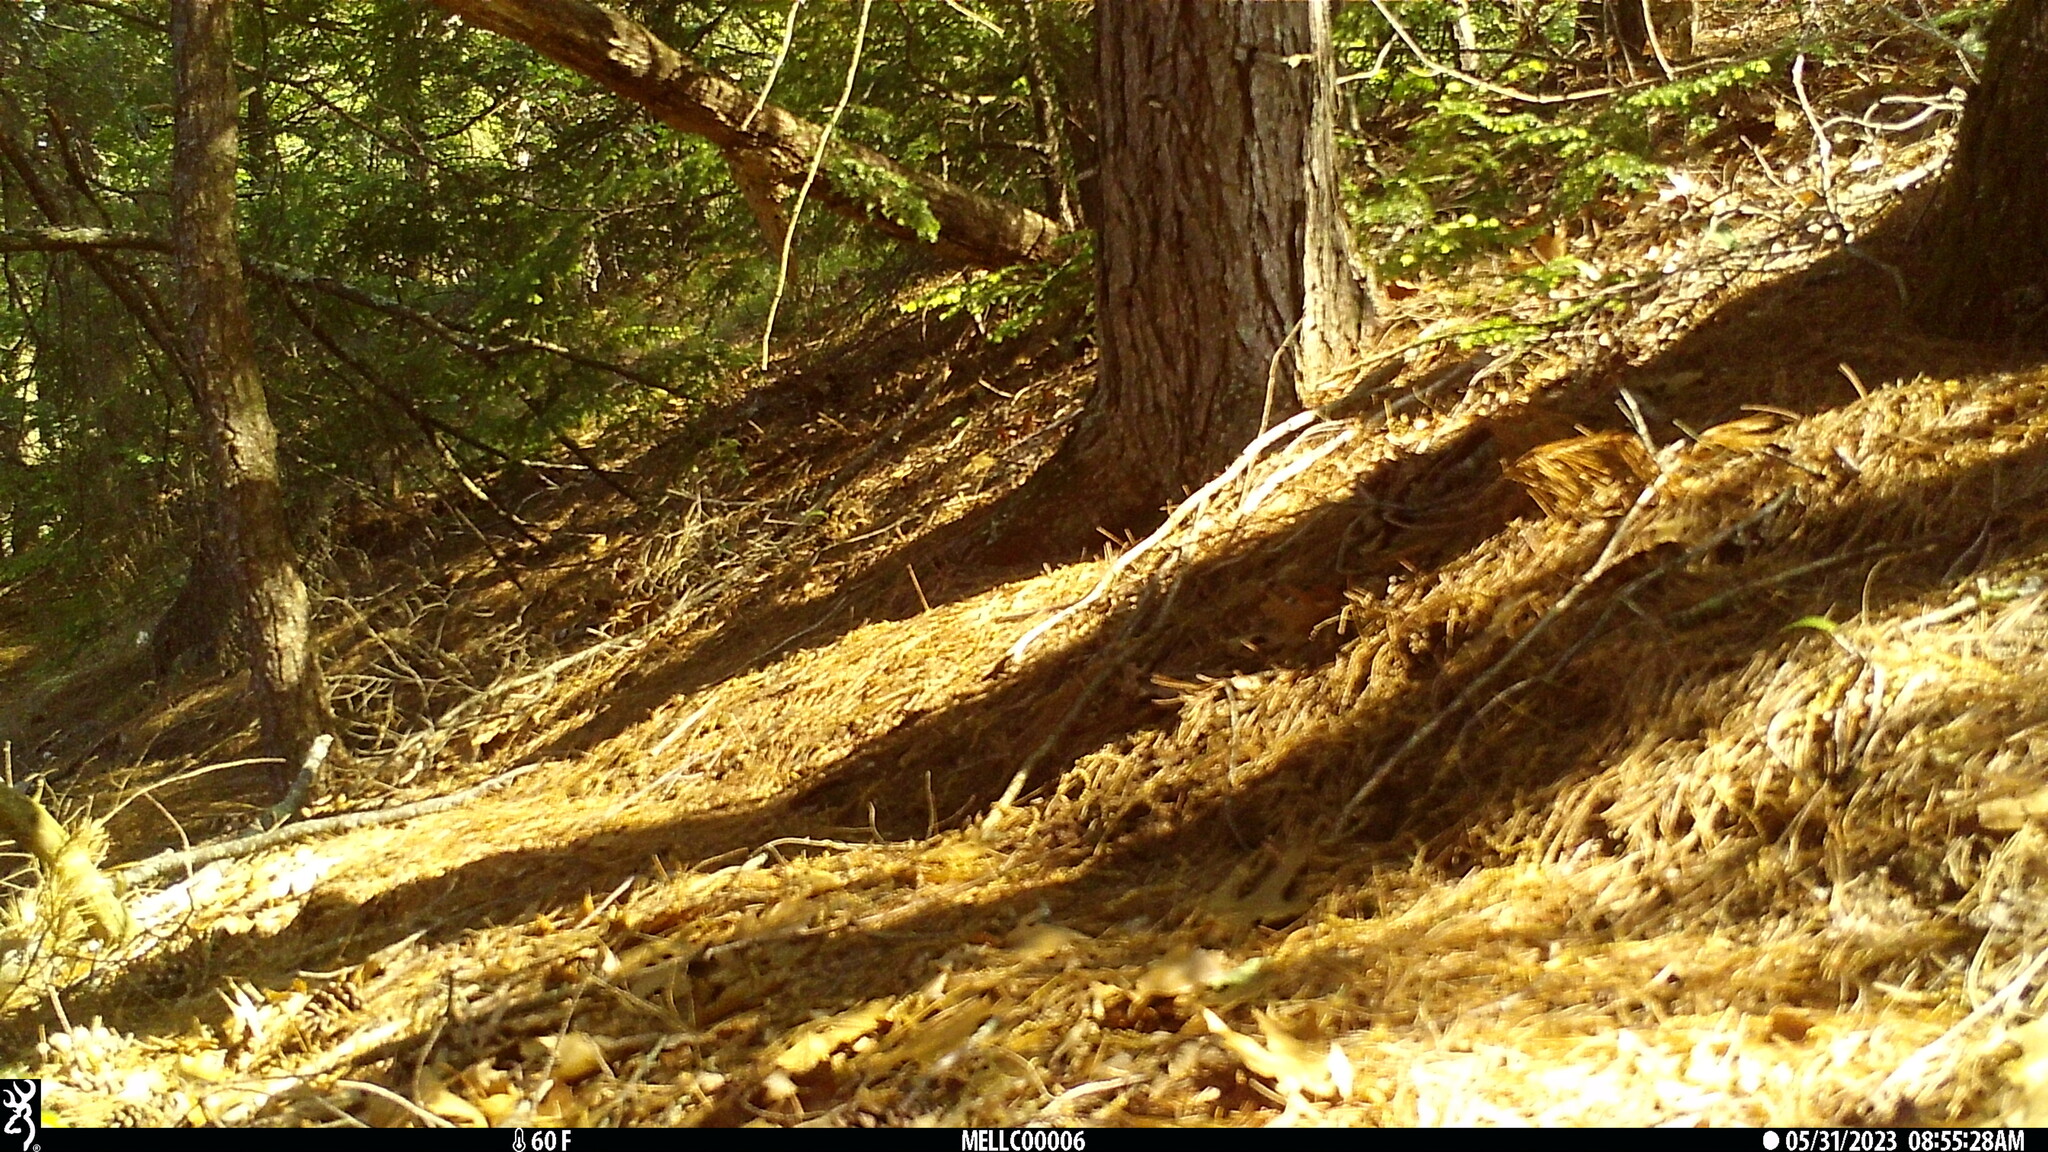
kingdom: Animalia
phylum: Chordata
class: Mammalia
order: Rodentia
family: Sciuridae
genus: Tamiasciurus
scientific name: Tamiasciurus hudsonicus
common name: Red squirrel
